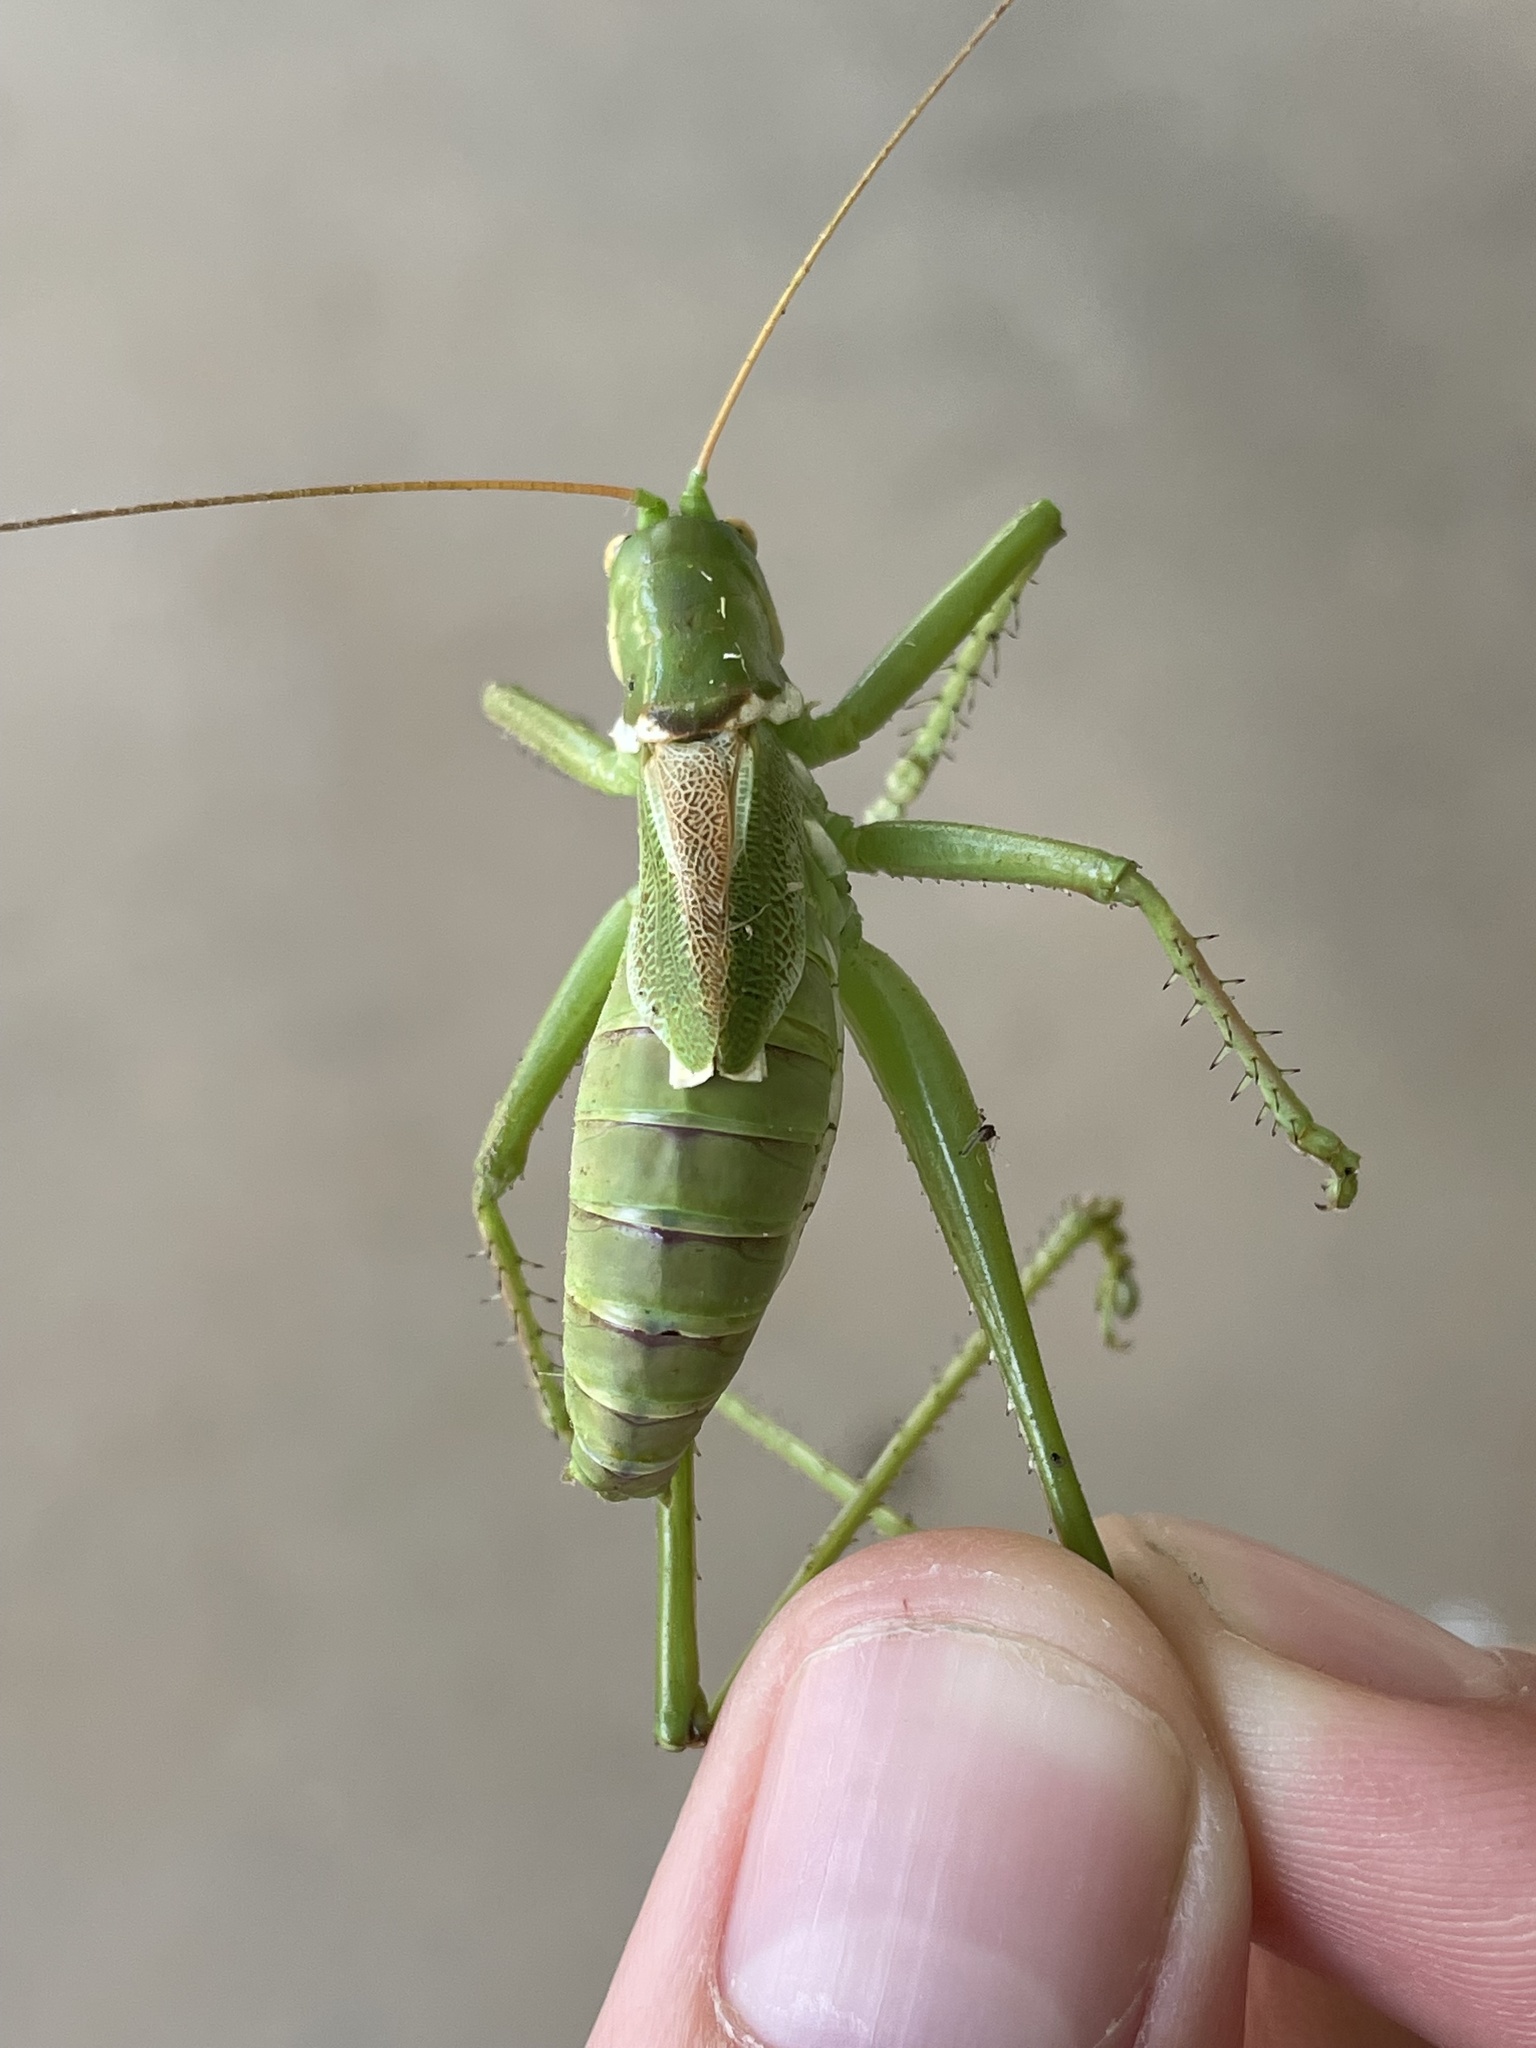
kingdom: Animalia
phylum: Arthropoda
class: Insecta
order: Orthoptera
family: Tettigoniidae
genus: Neobarrettia
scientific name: Neobarrettia victoriae
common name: Lesser arid-land katydid
